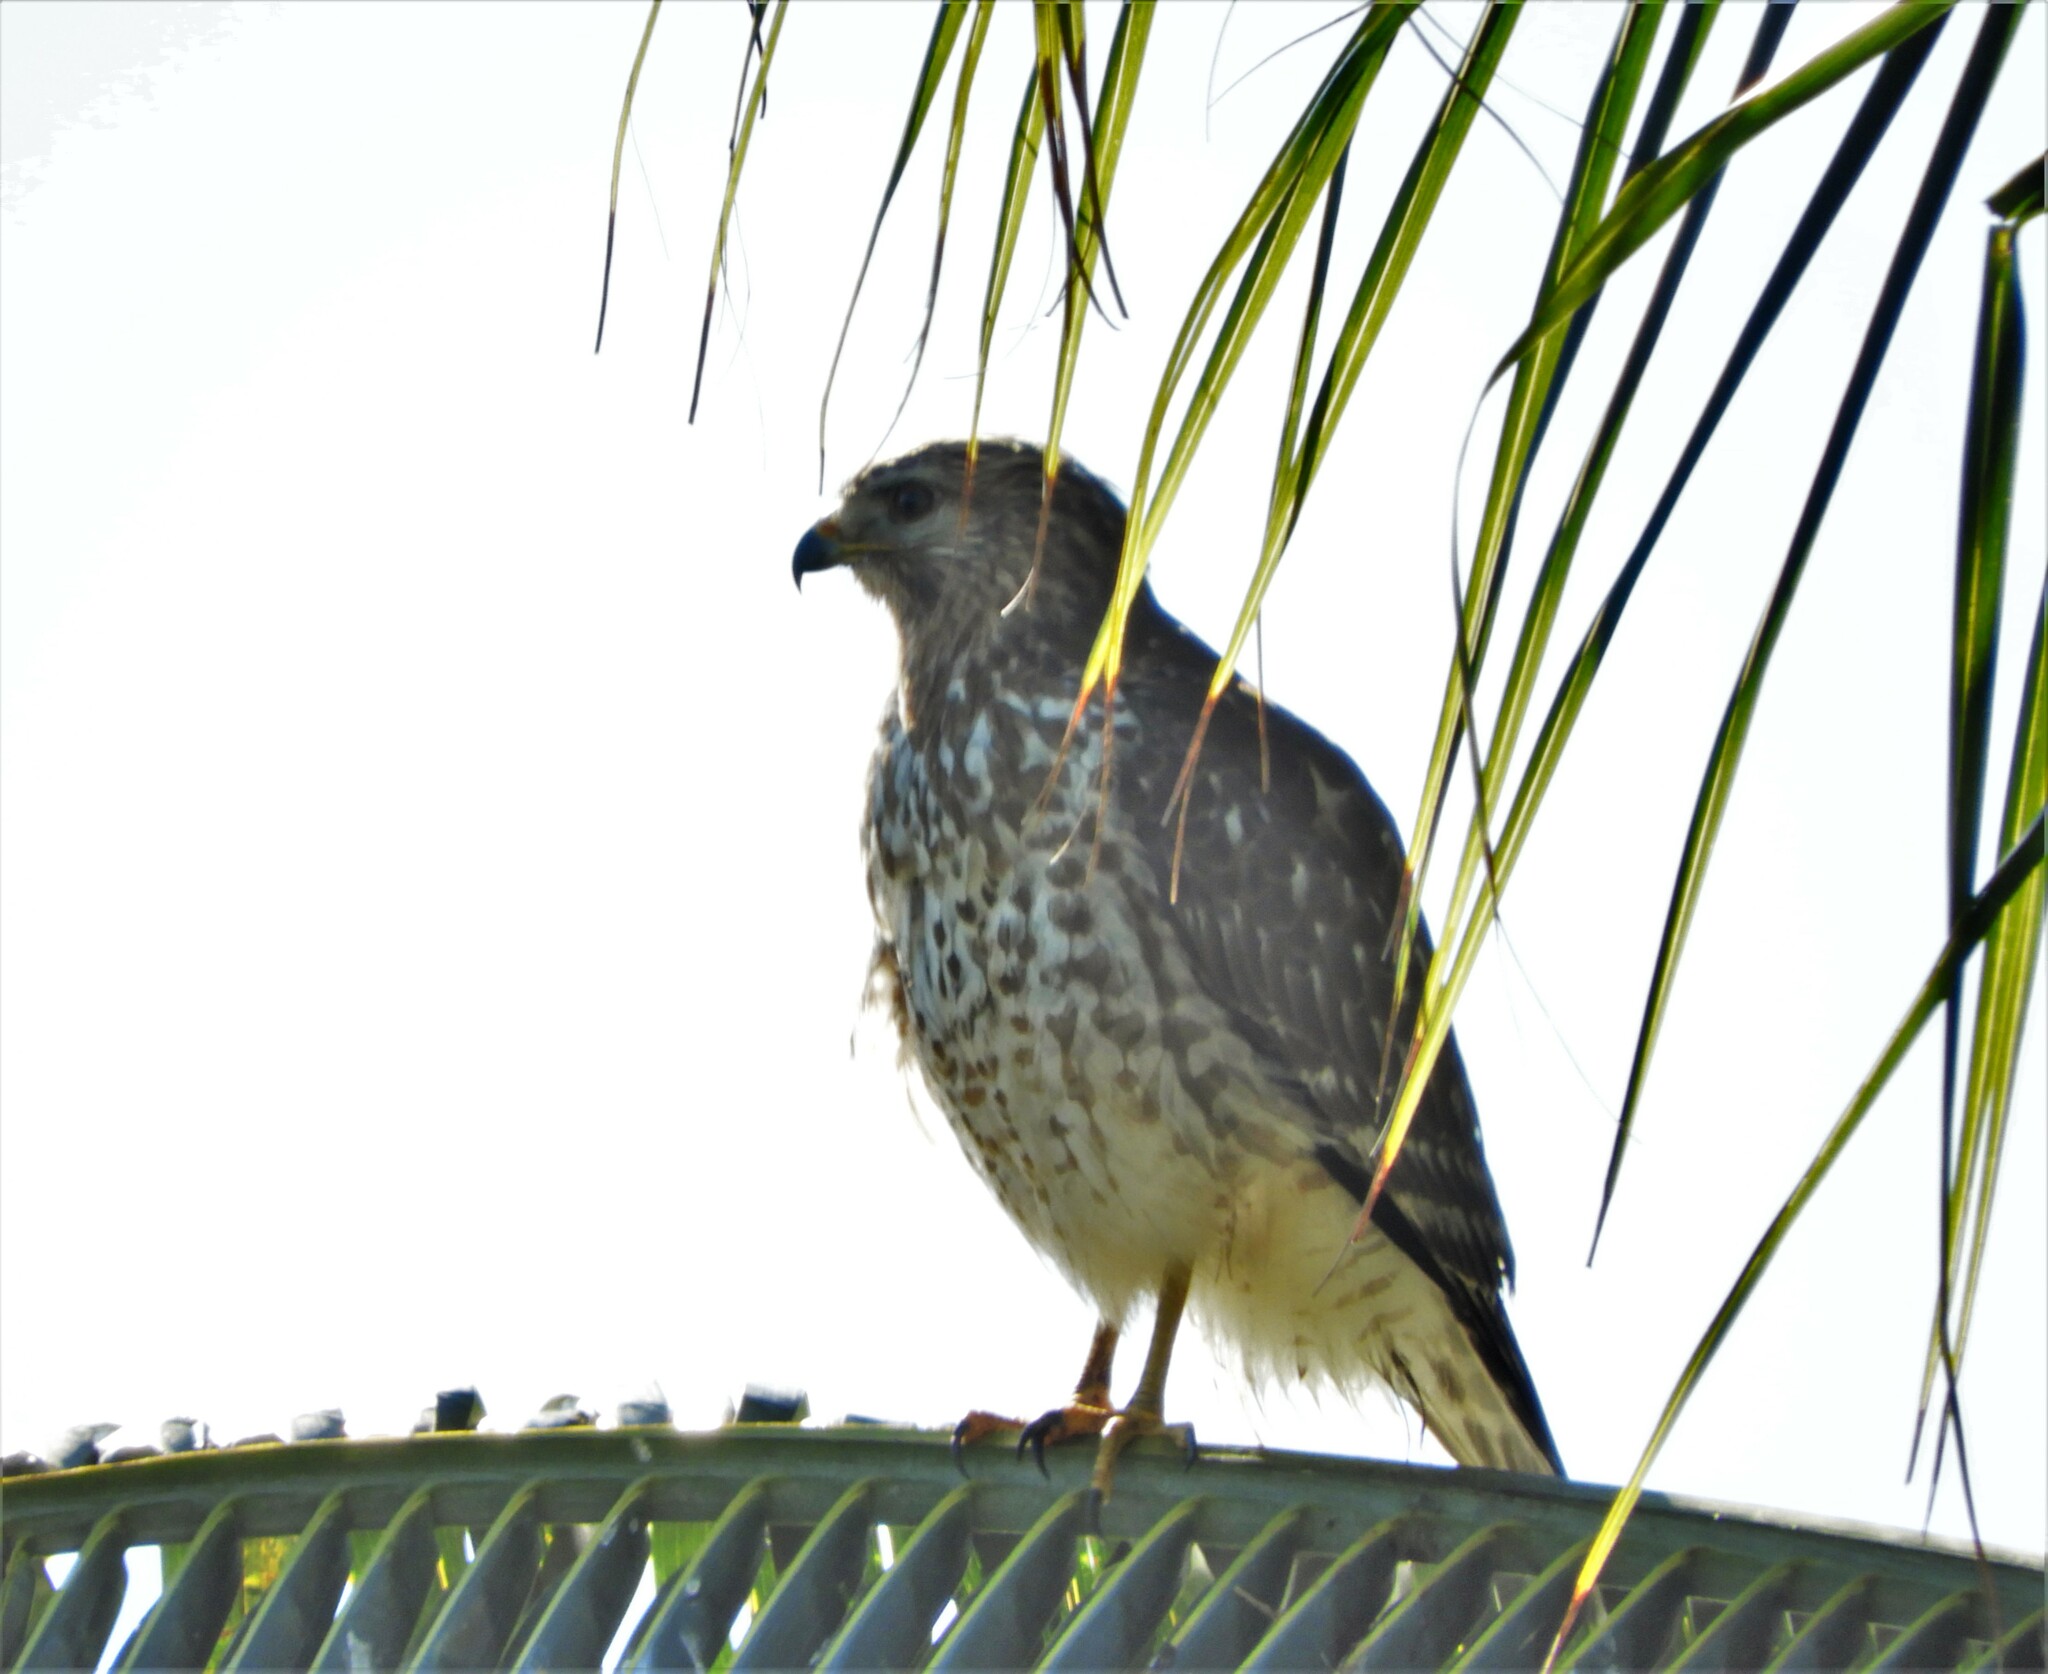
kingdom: Animalia
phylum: Chordata
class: Aves
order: Accipitriformes
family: Accipitridae
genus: Buteo
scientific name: Buteo lineatus
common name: Red-shouldered hawk
